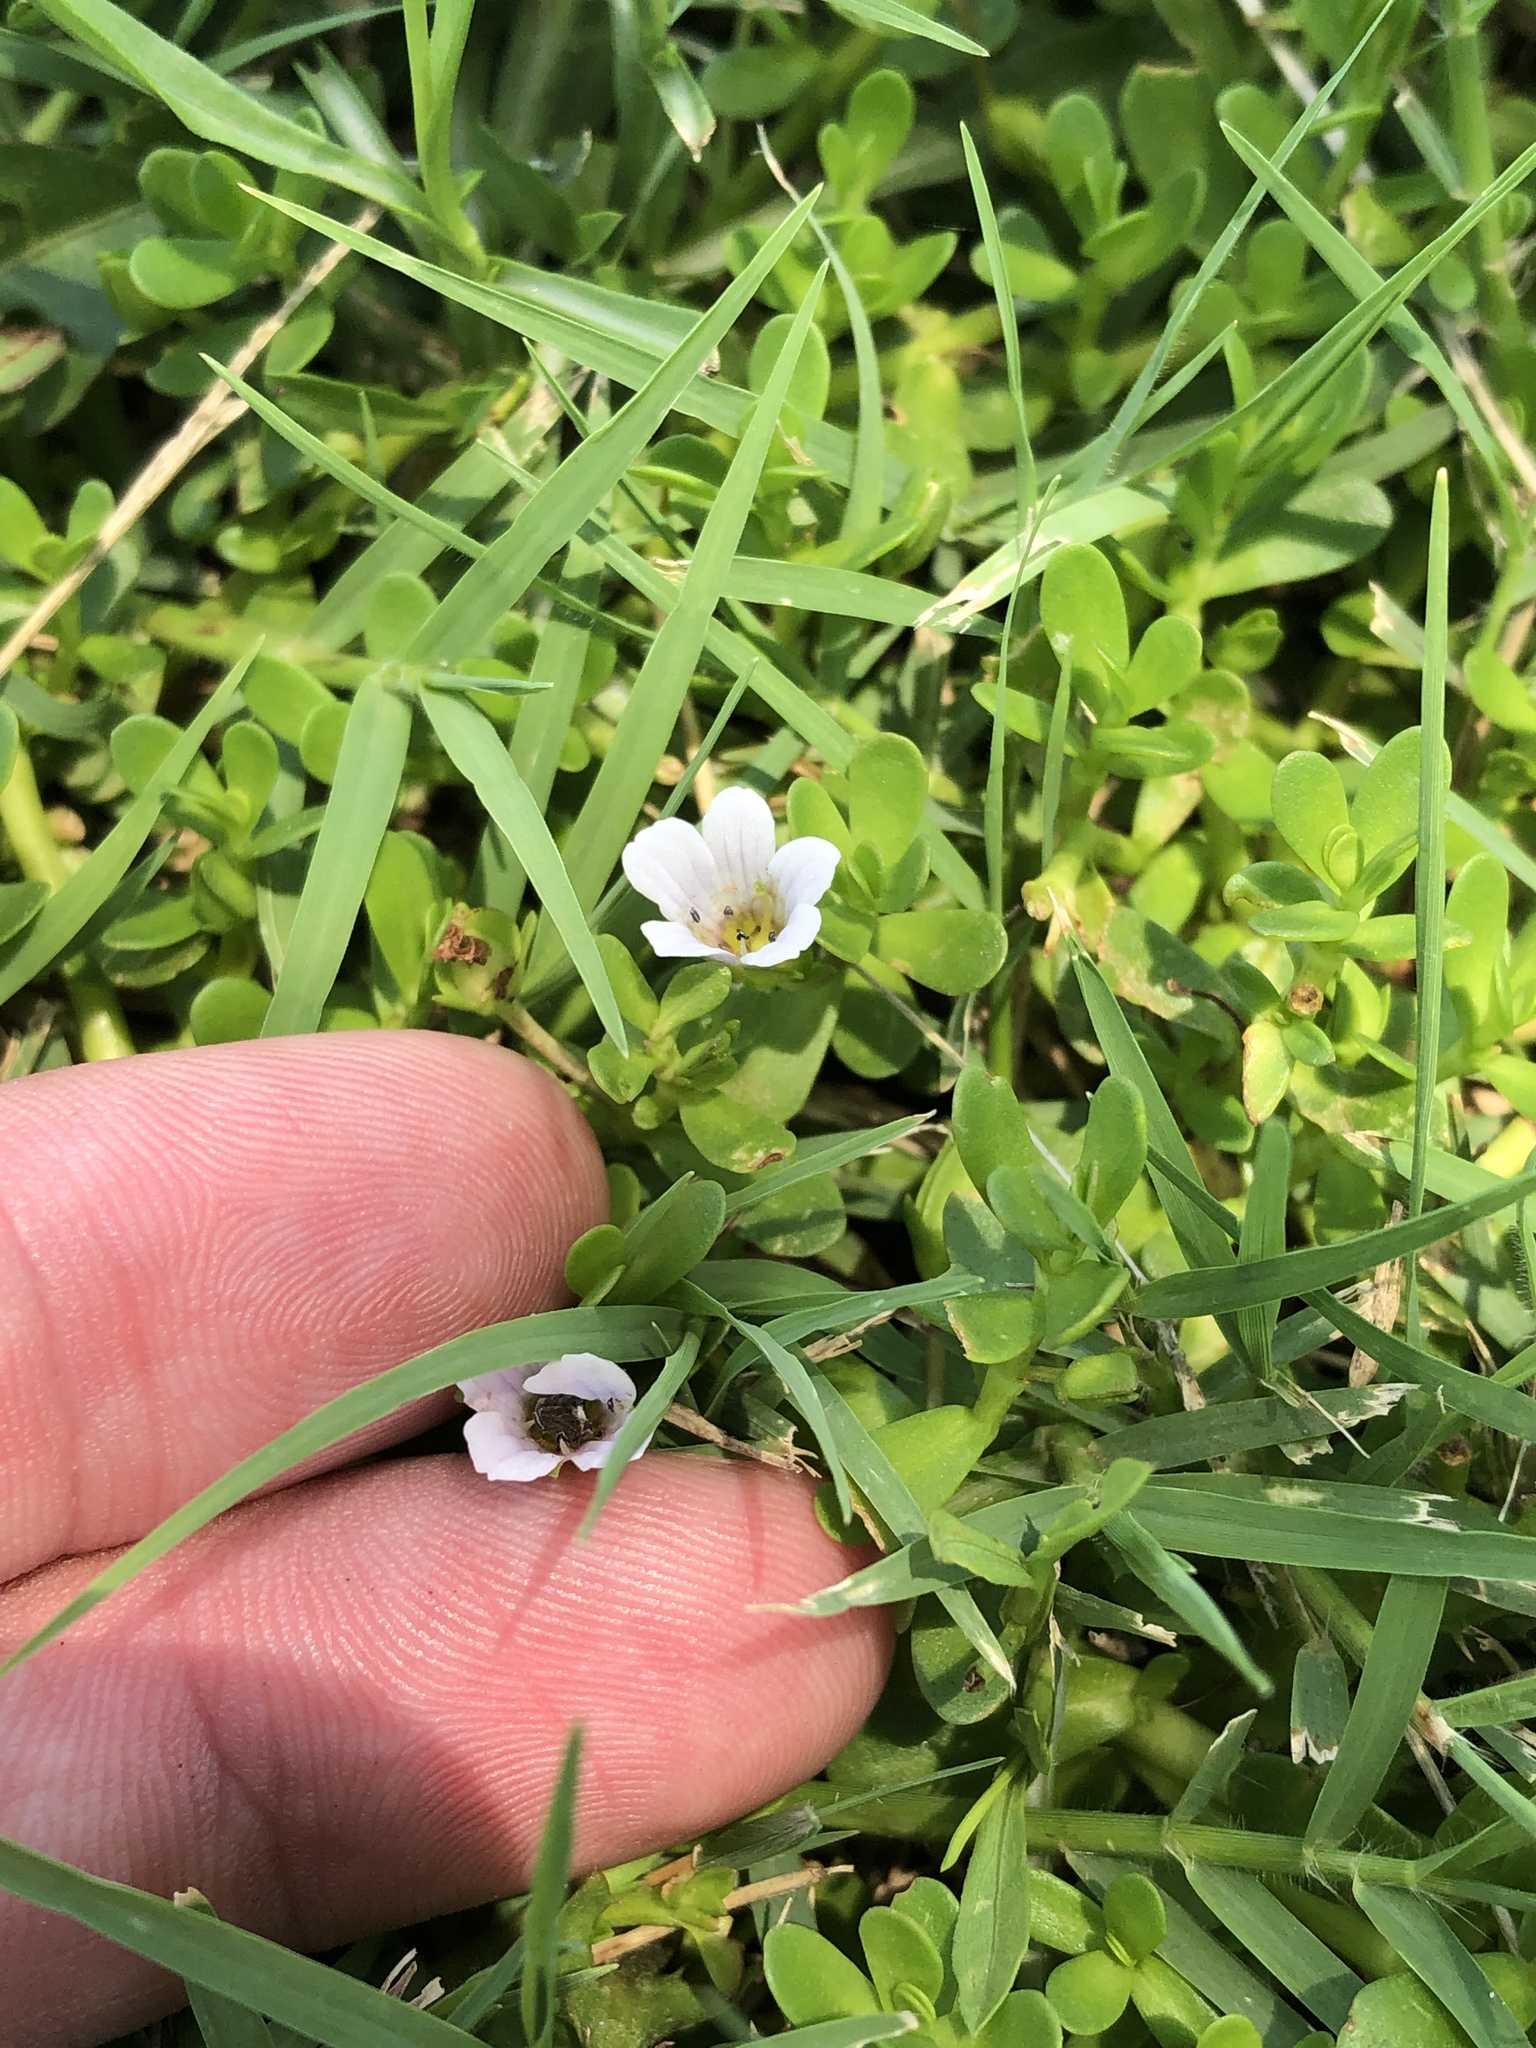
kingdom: Plantae
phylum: Tracheophyta
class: Magnoliopsida
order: Lamiales
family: Plantaginaceae
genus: Bacopa
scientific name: Bacopa monnieri
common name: Indian-pennywort
